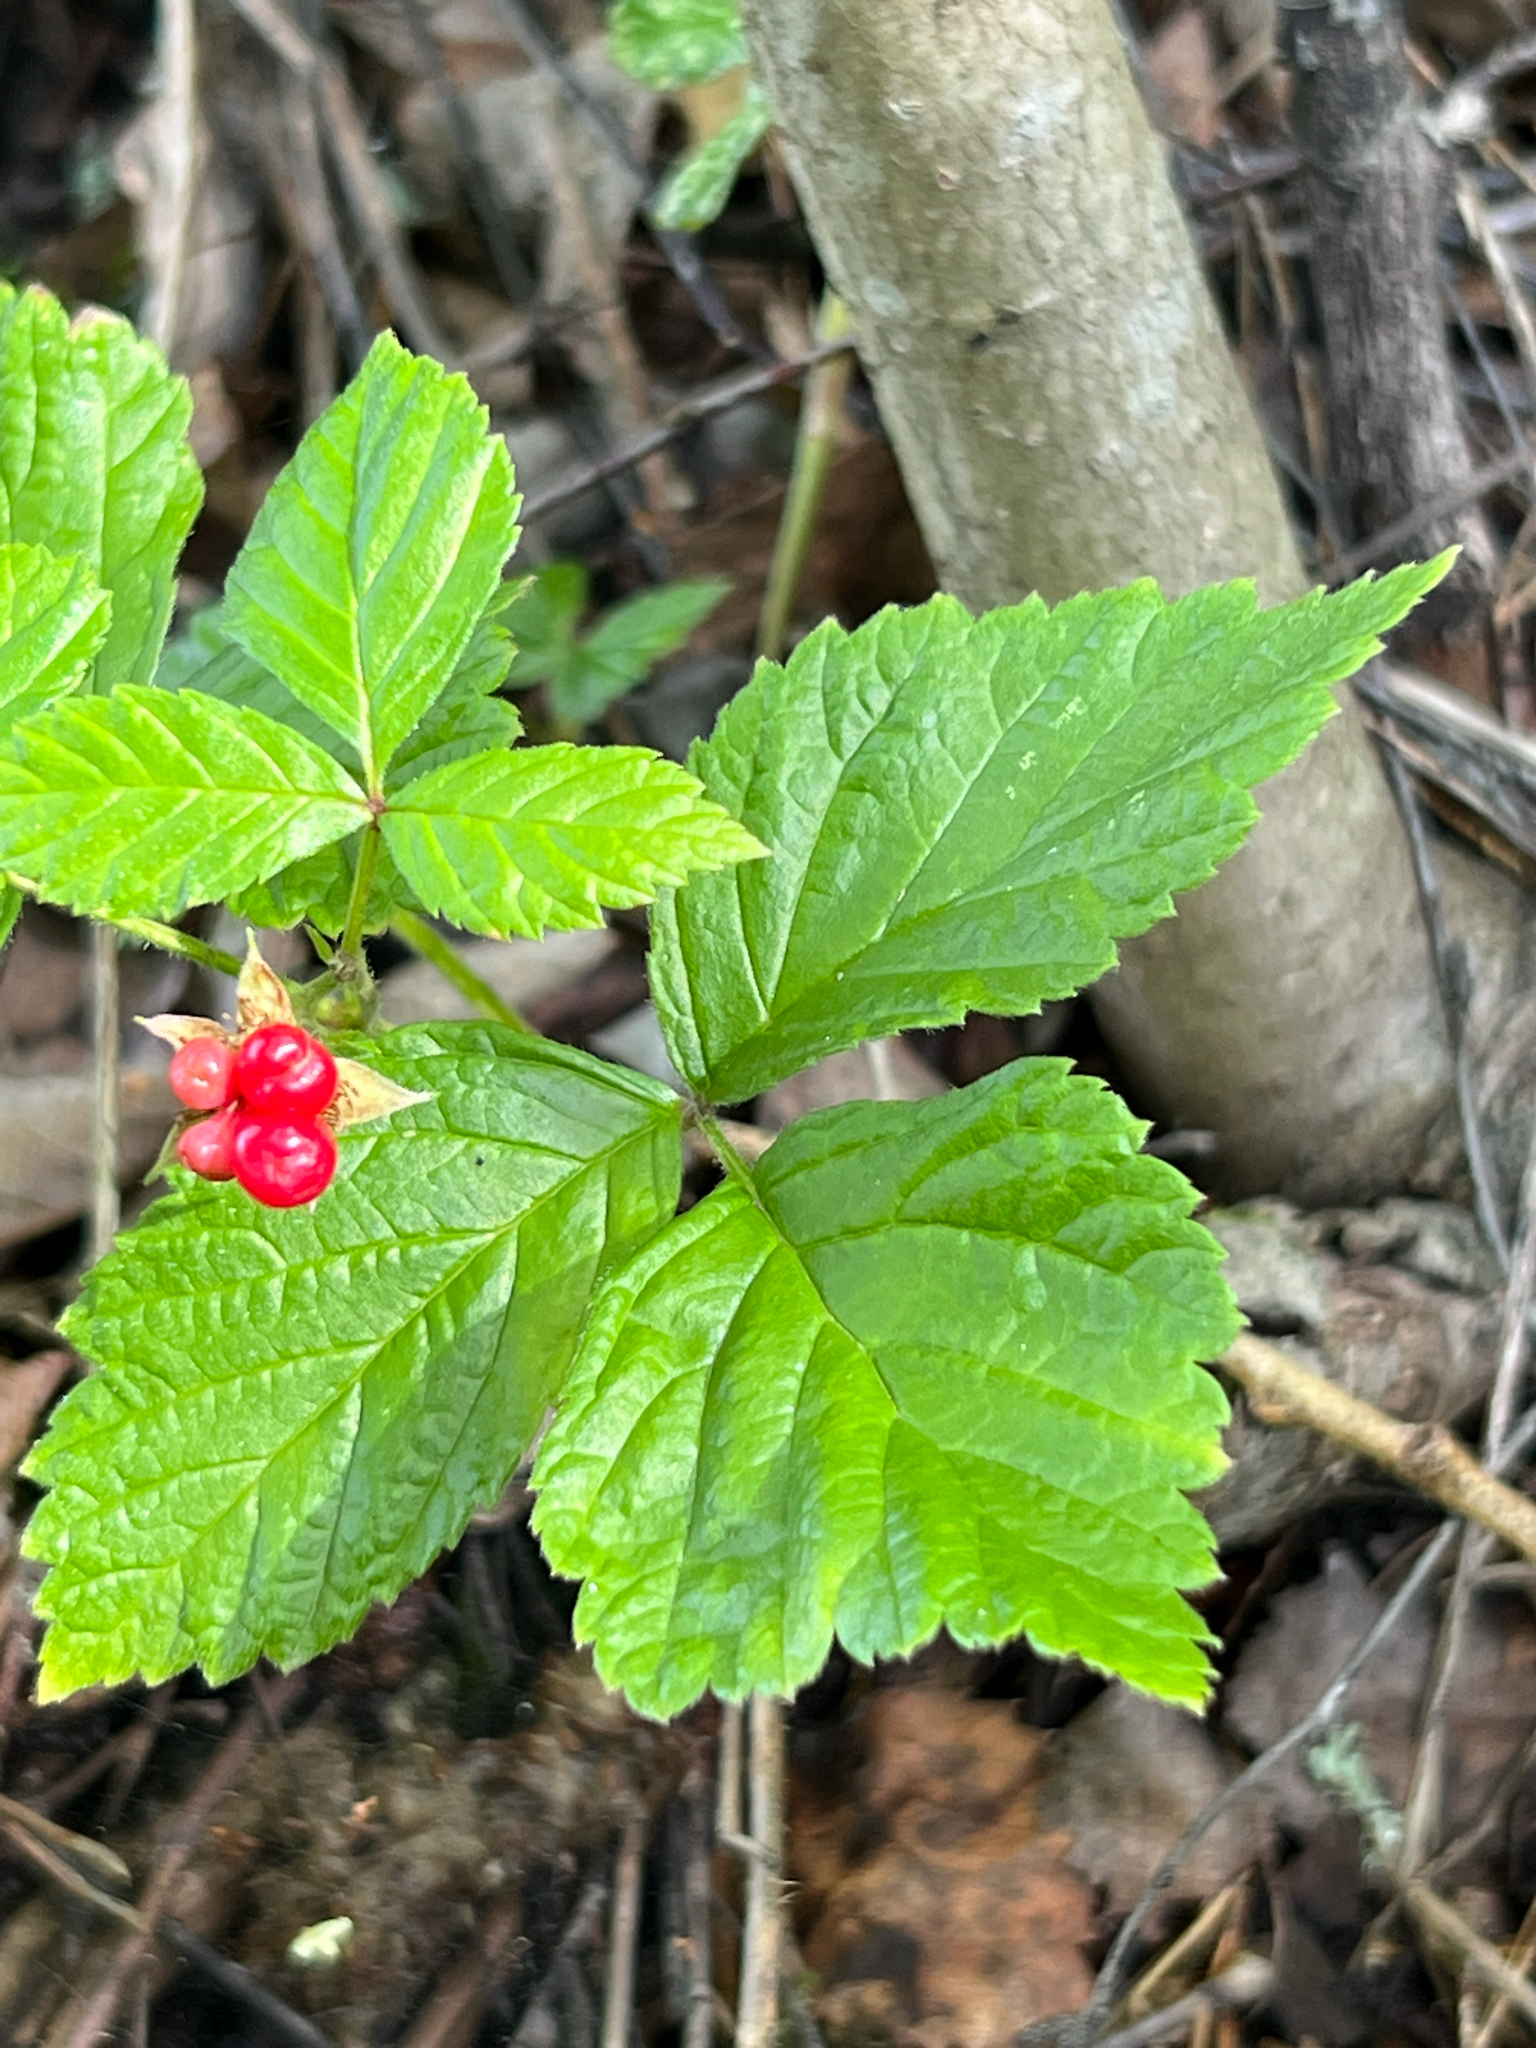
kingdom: Plantae
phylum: Tracheophyta
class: Magnoliopsida
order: Rosales
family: Rosaceae
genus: Rubus
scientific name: Rubus saxatilis
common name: Stone bramble
